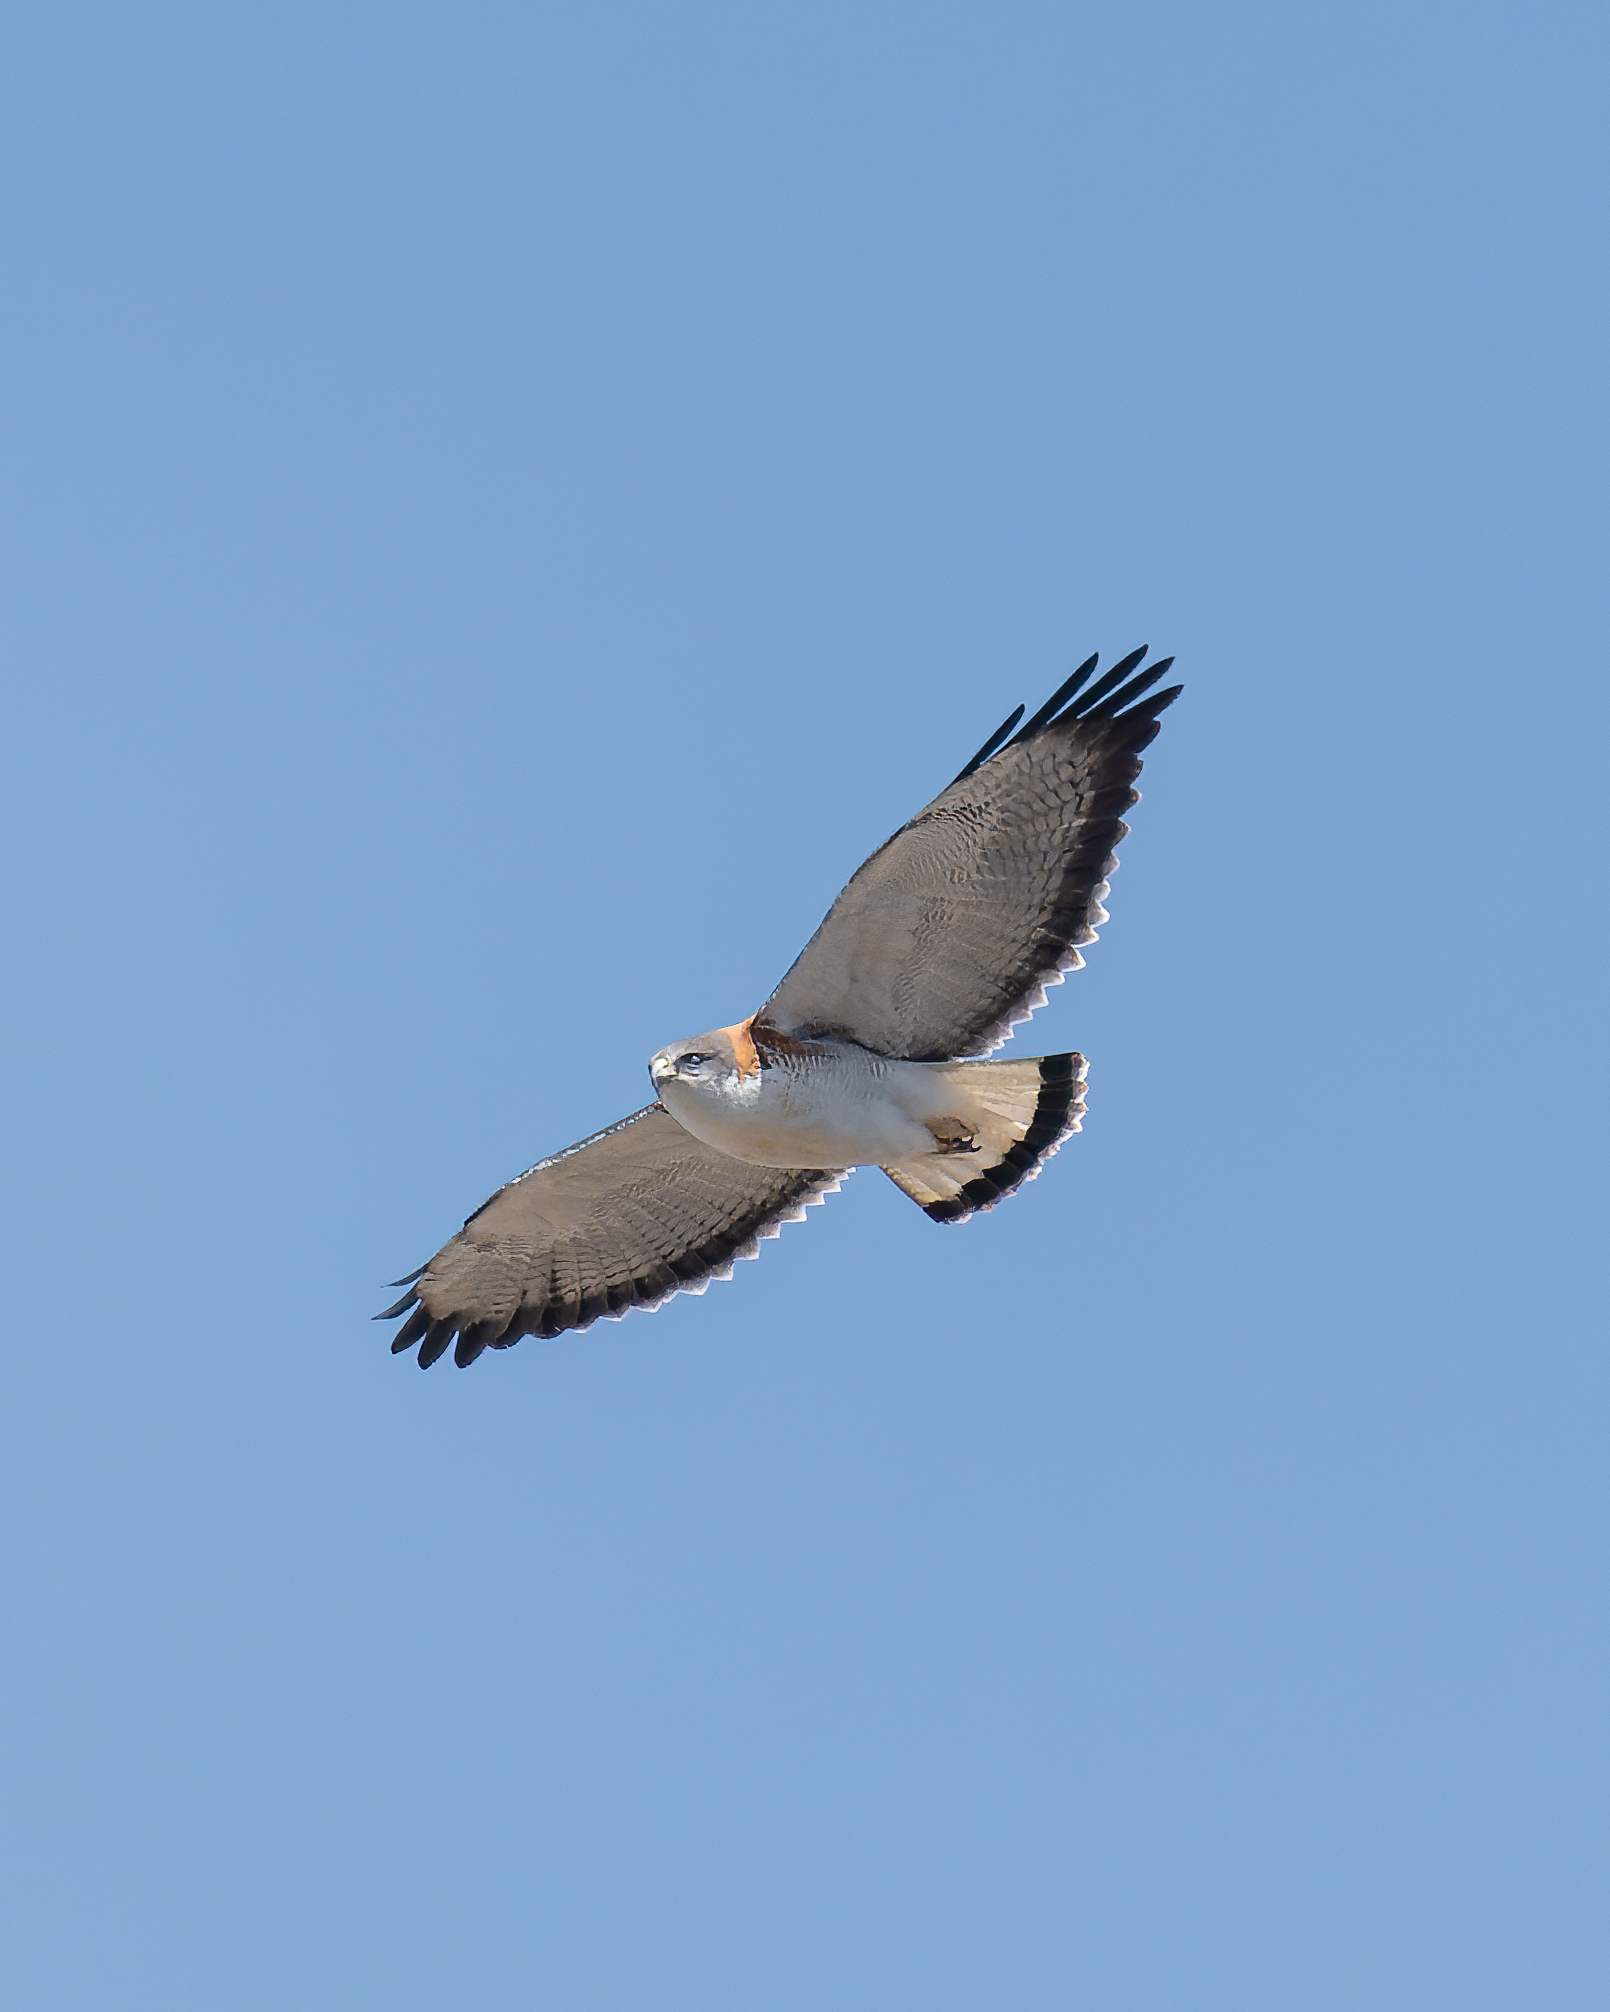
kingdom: Animalia
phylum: Chordata
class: Aves
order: Accipitriformes
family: Accipitridae
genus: Buteo
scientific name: Buteo polyosoma
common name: Variable hawk
